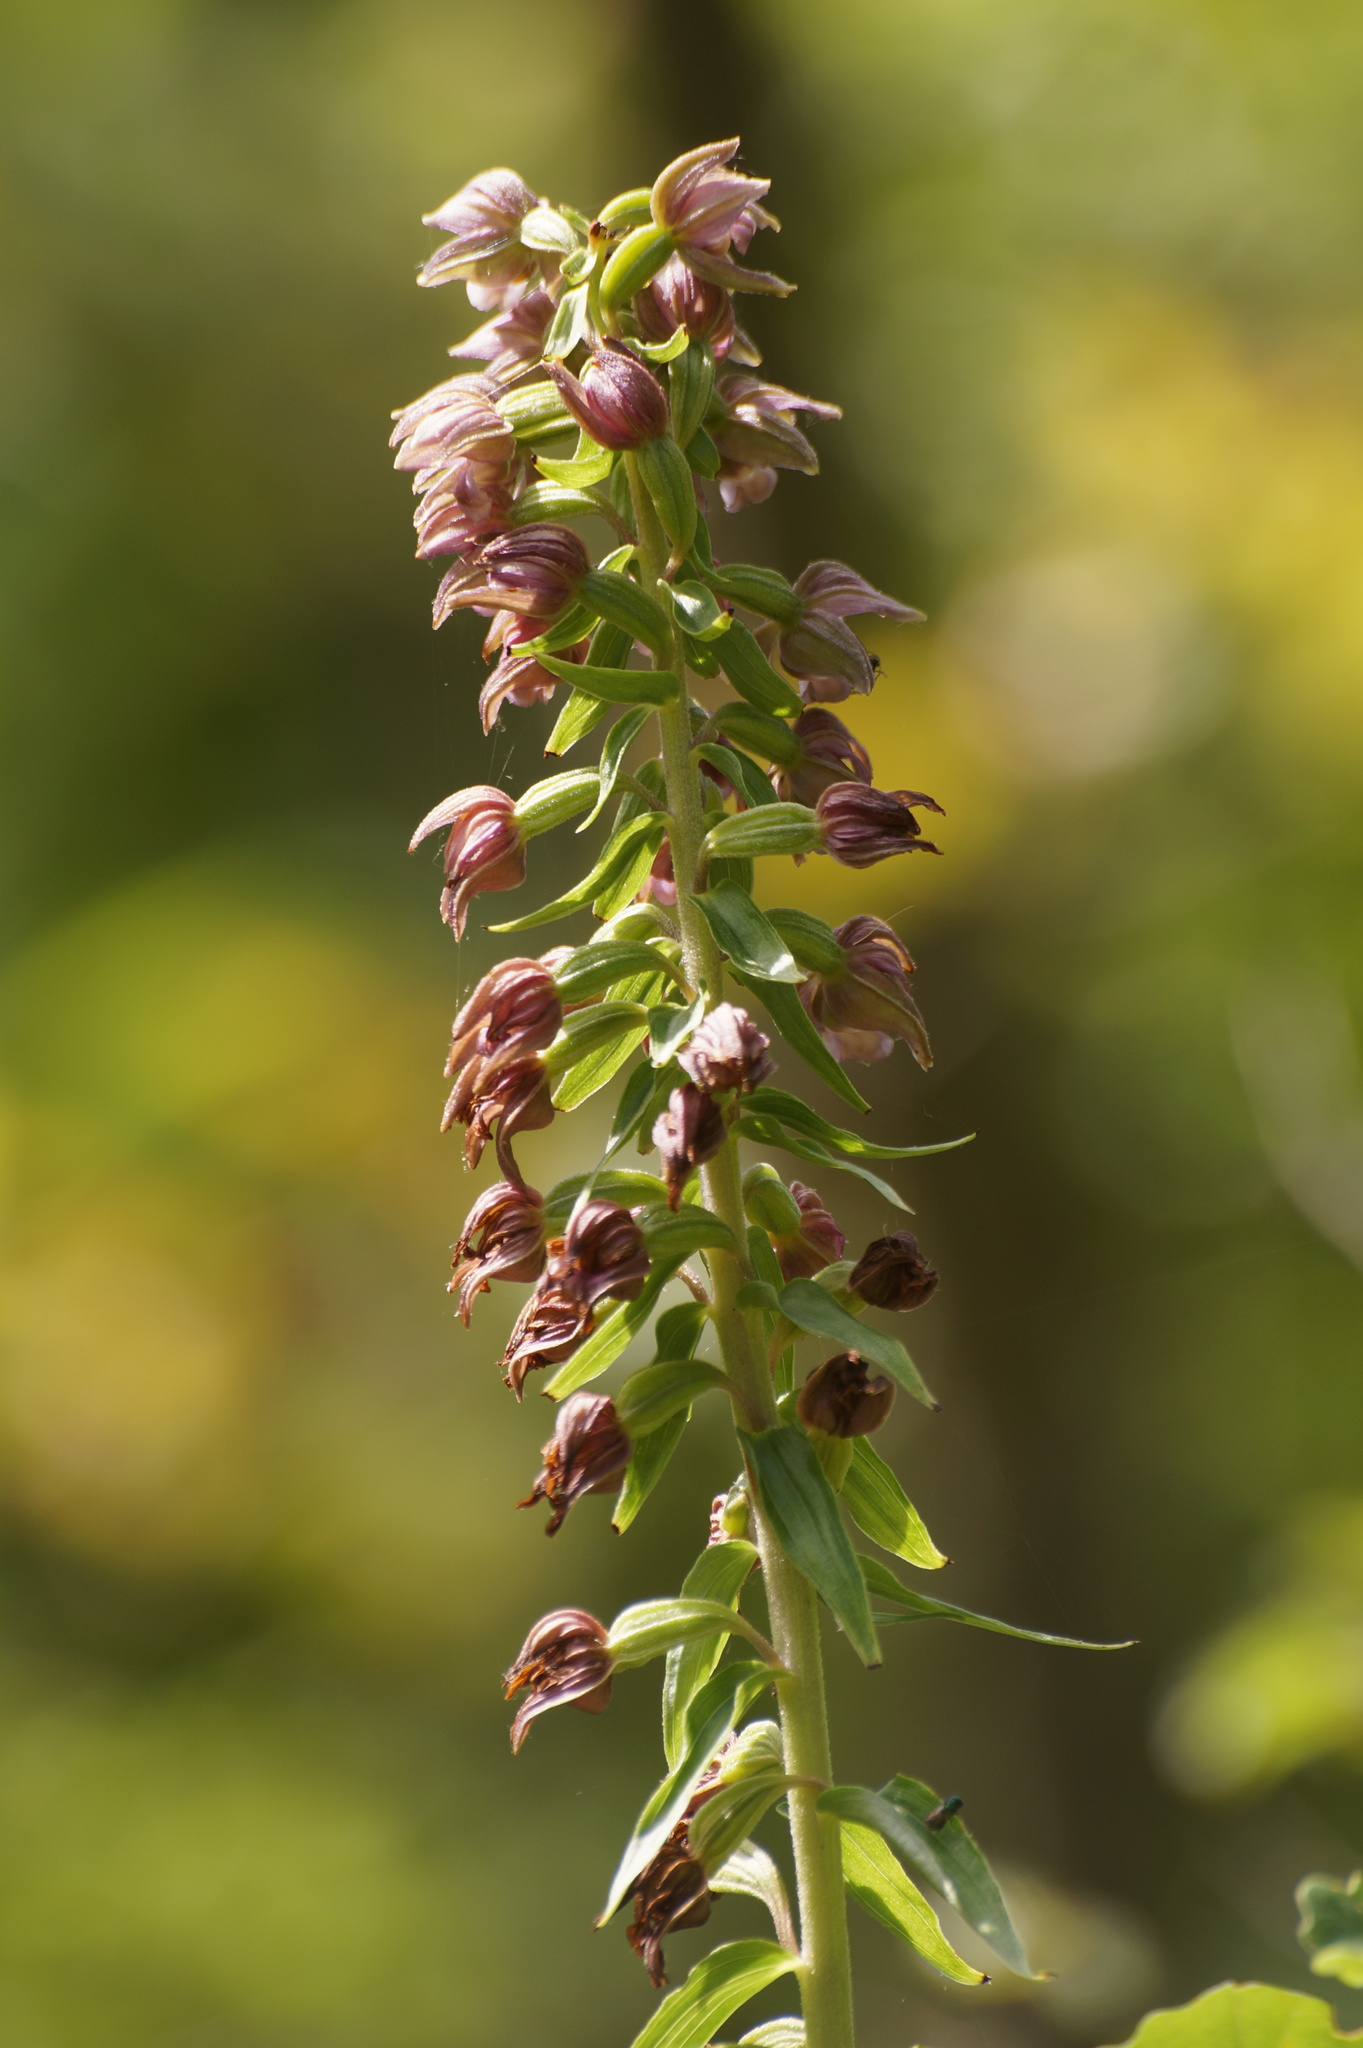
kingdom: Plantae
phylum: Tracheophyta
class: Liliopsida
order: Asparagales
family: Orchidaceae
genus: Epipactis
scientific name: Epipactis helleborine
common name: Broad-leaved helleborine
